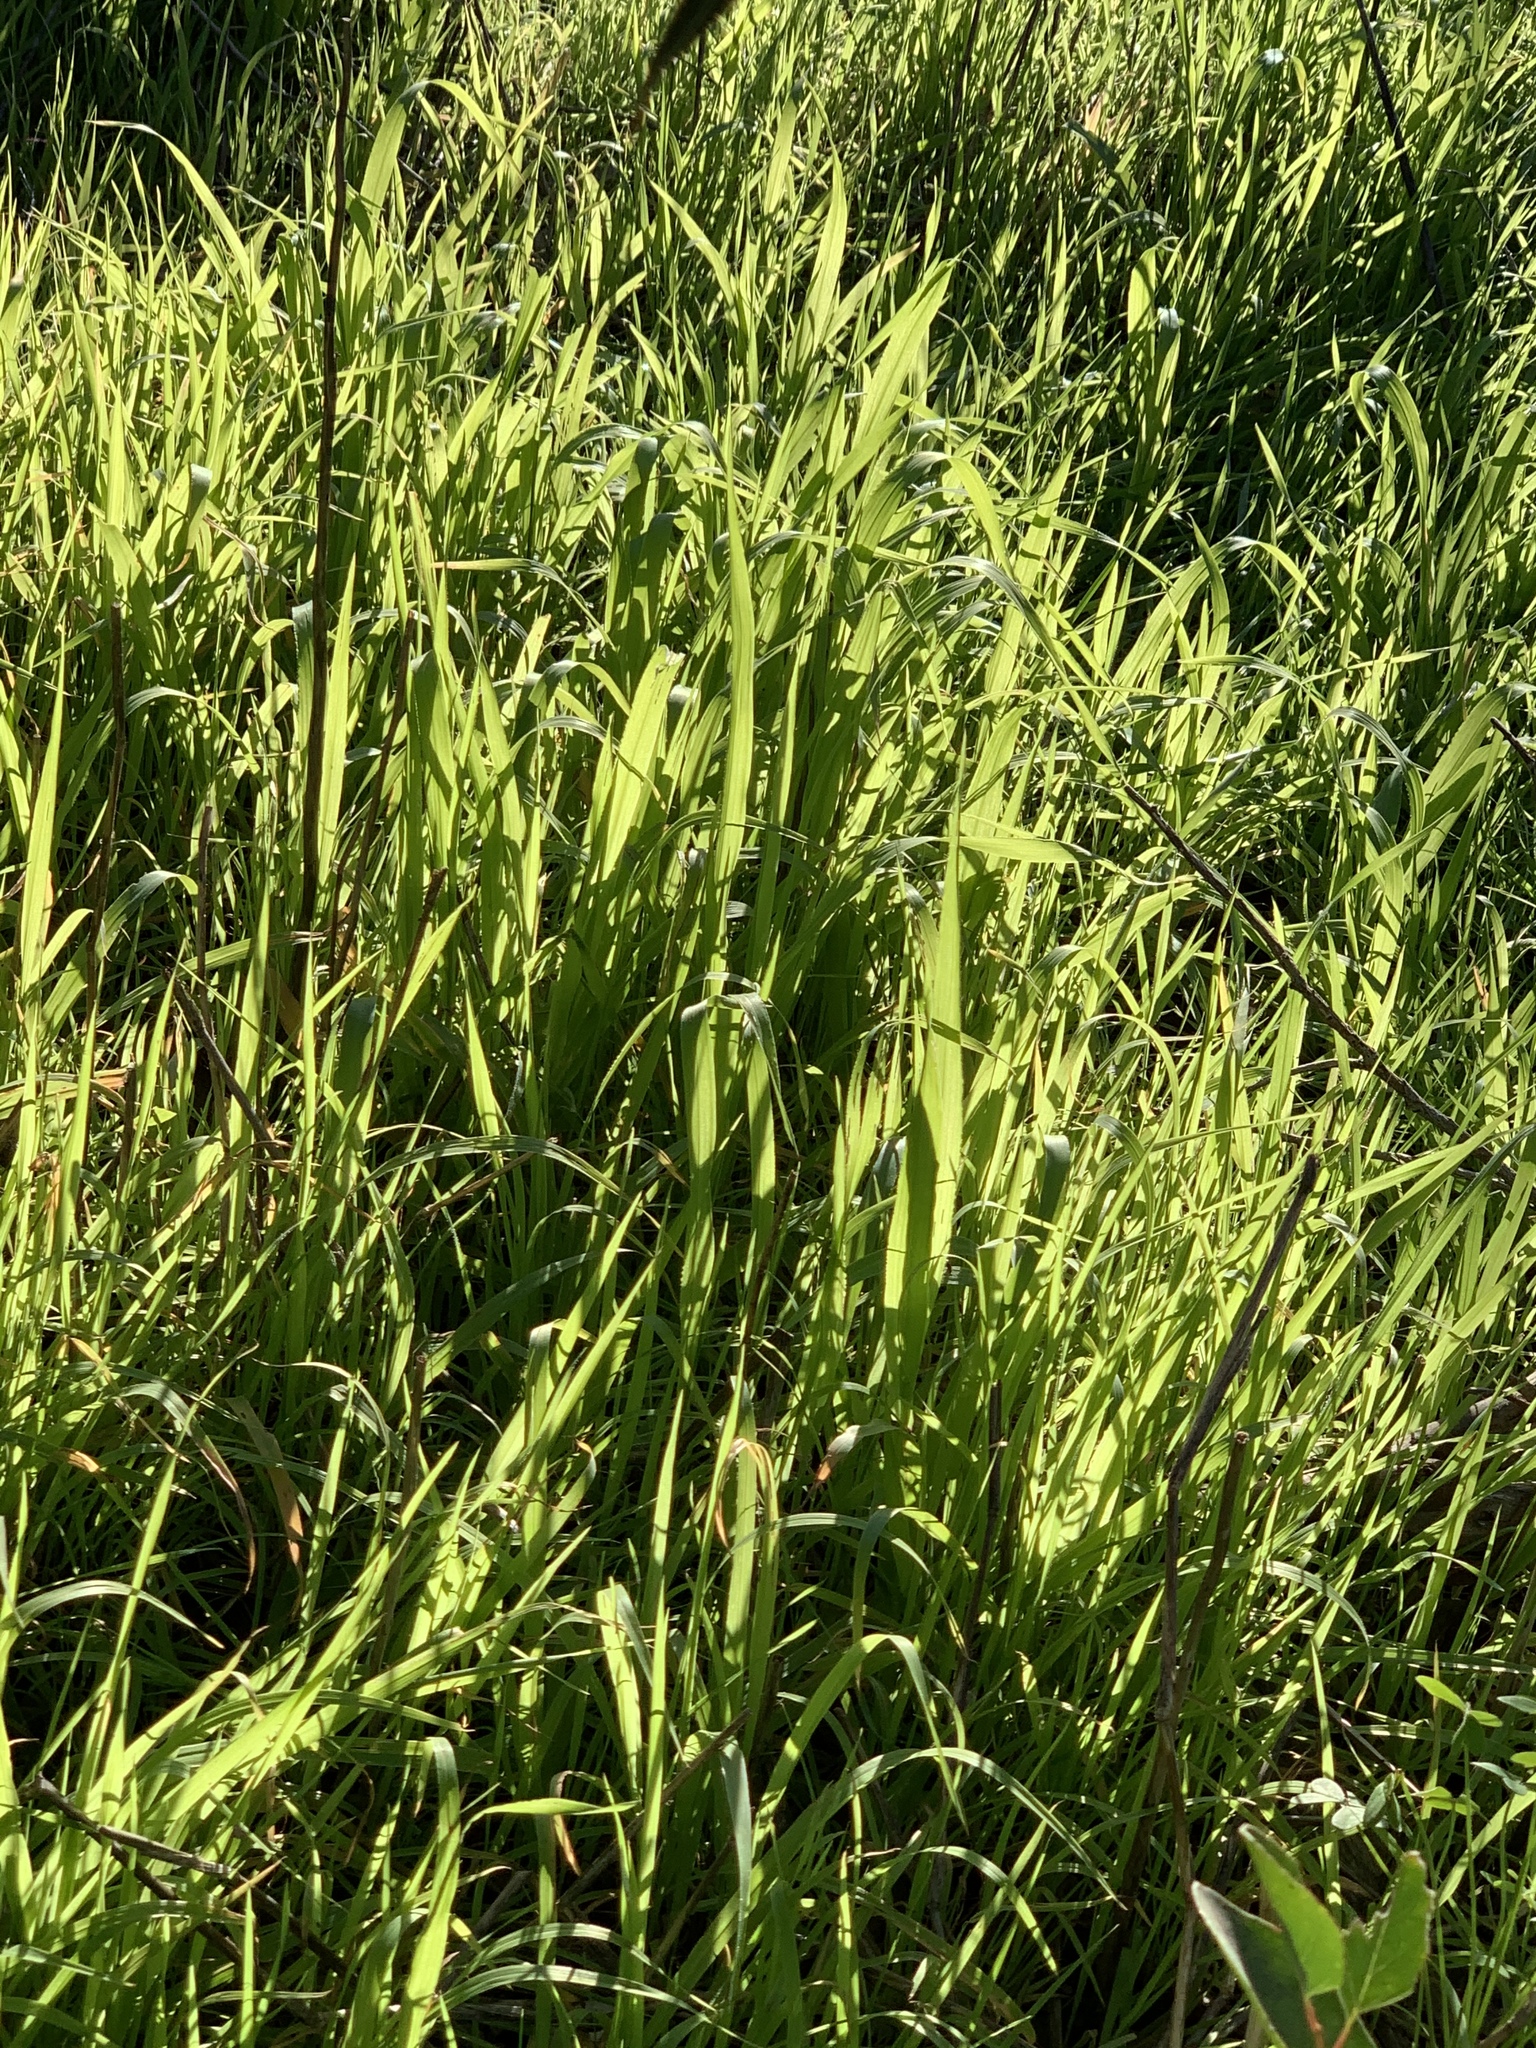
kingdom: Plantae
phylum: Tracheophyta
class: Liliopsida
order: Poales
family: Poaceae
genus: Cenchrus
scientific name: Cenchrus clandestinus
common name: Kikuyugrass
